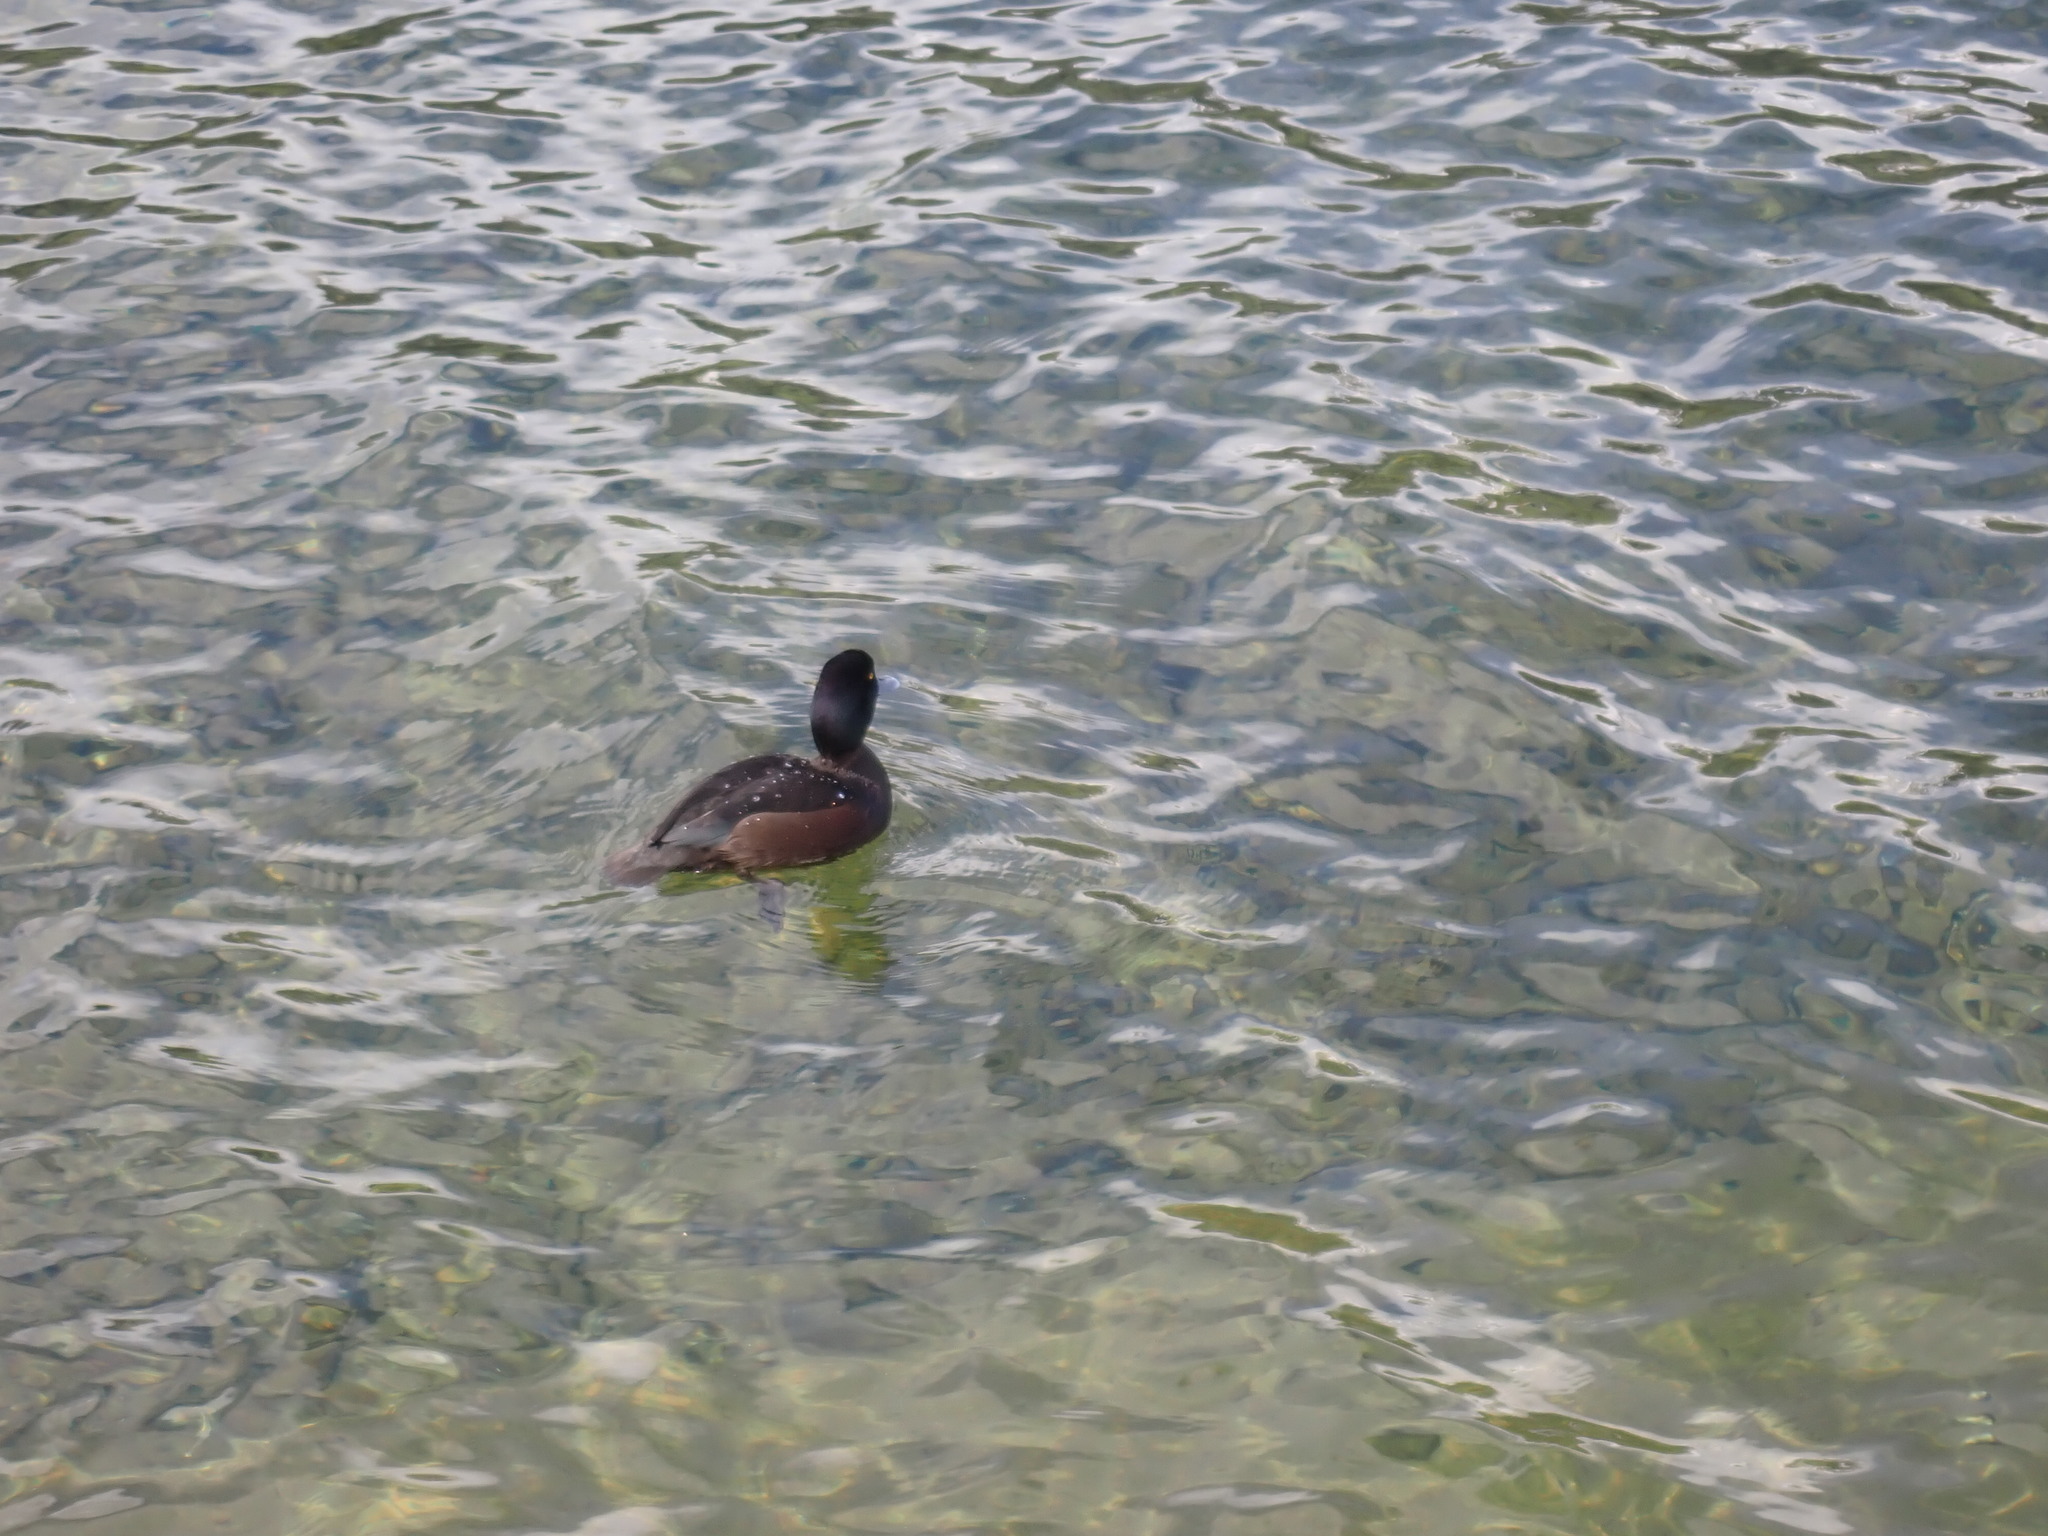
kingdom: Animalia
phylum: Chordata
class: Aves
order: Anseriformes
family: Anatidae
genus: Aythya
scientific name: Aythya novaeseelandiae
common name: New zealand scaup
